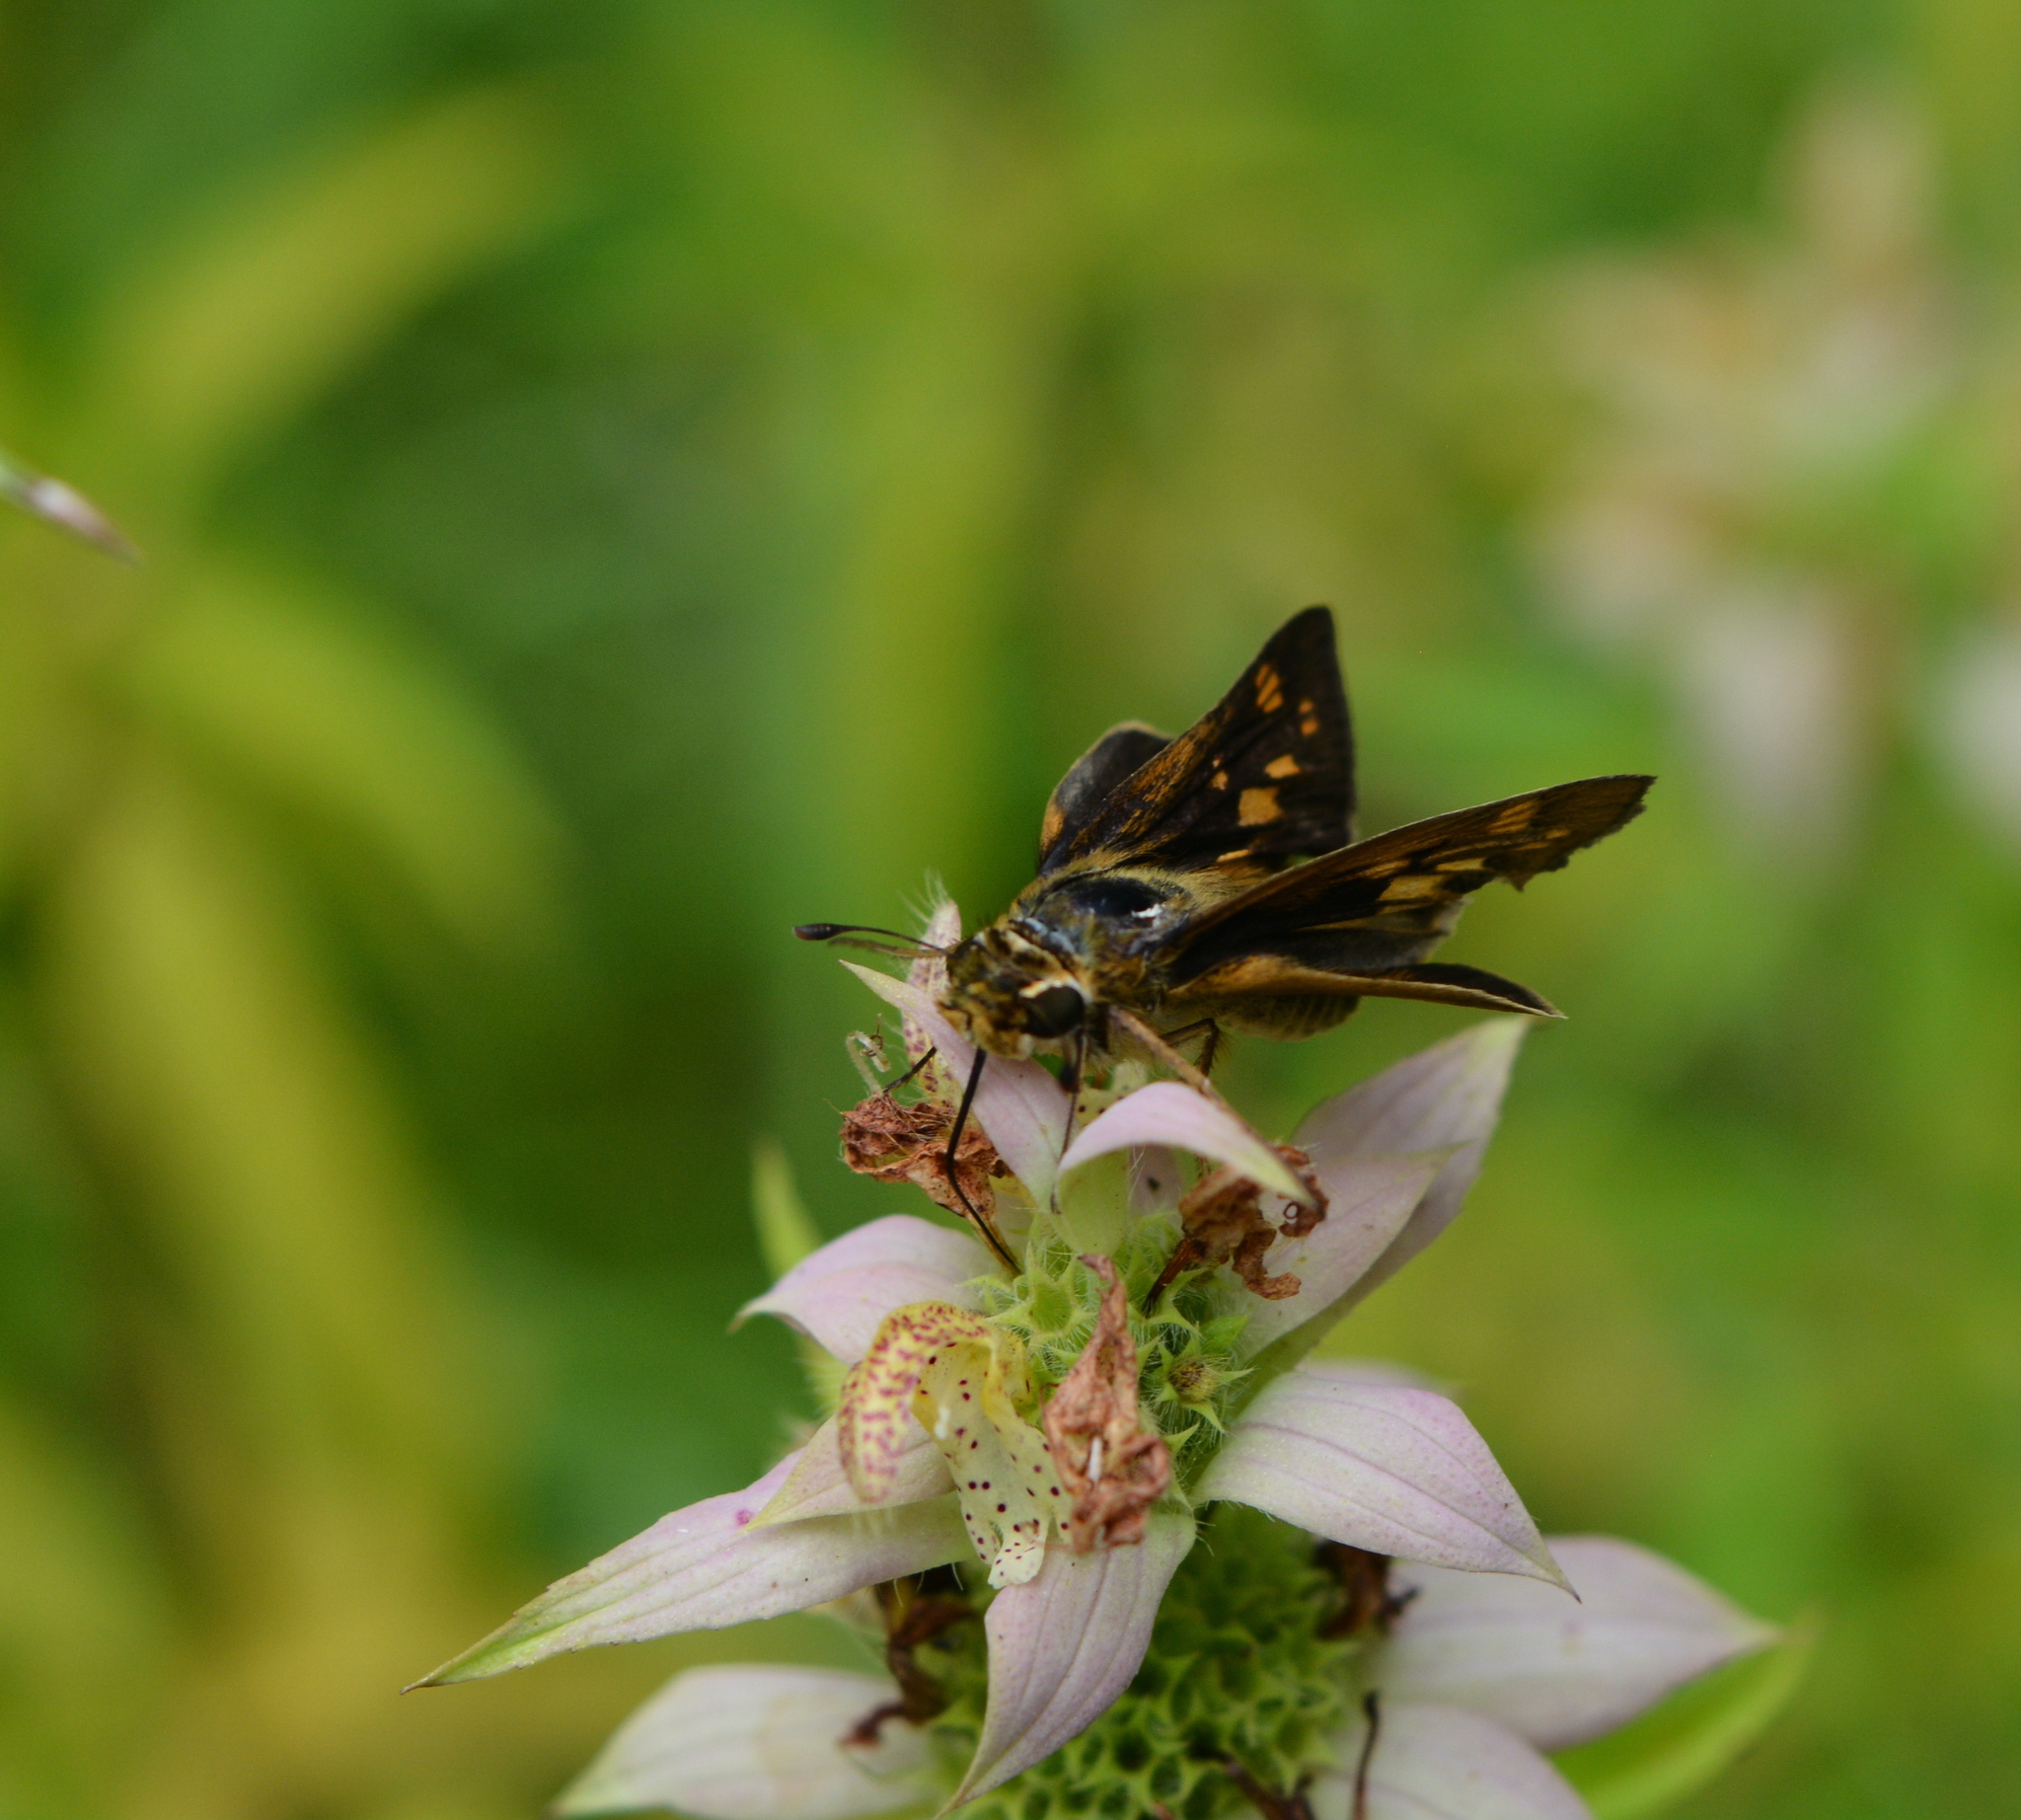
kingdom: Animalia
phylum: Arthropoda
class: Insecta
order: Lepidoptera
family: Hesperiidae
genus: Hylephila
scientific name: Hylephila phyleus
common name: Fiery skipper
